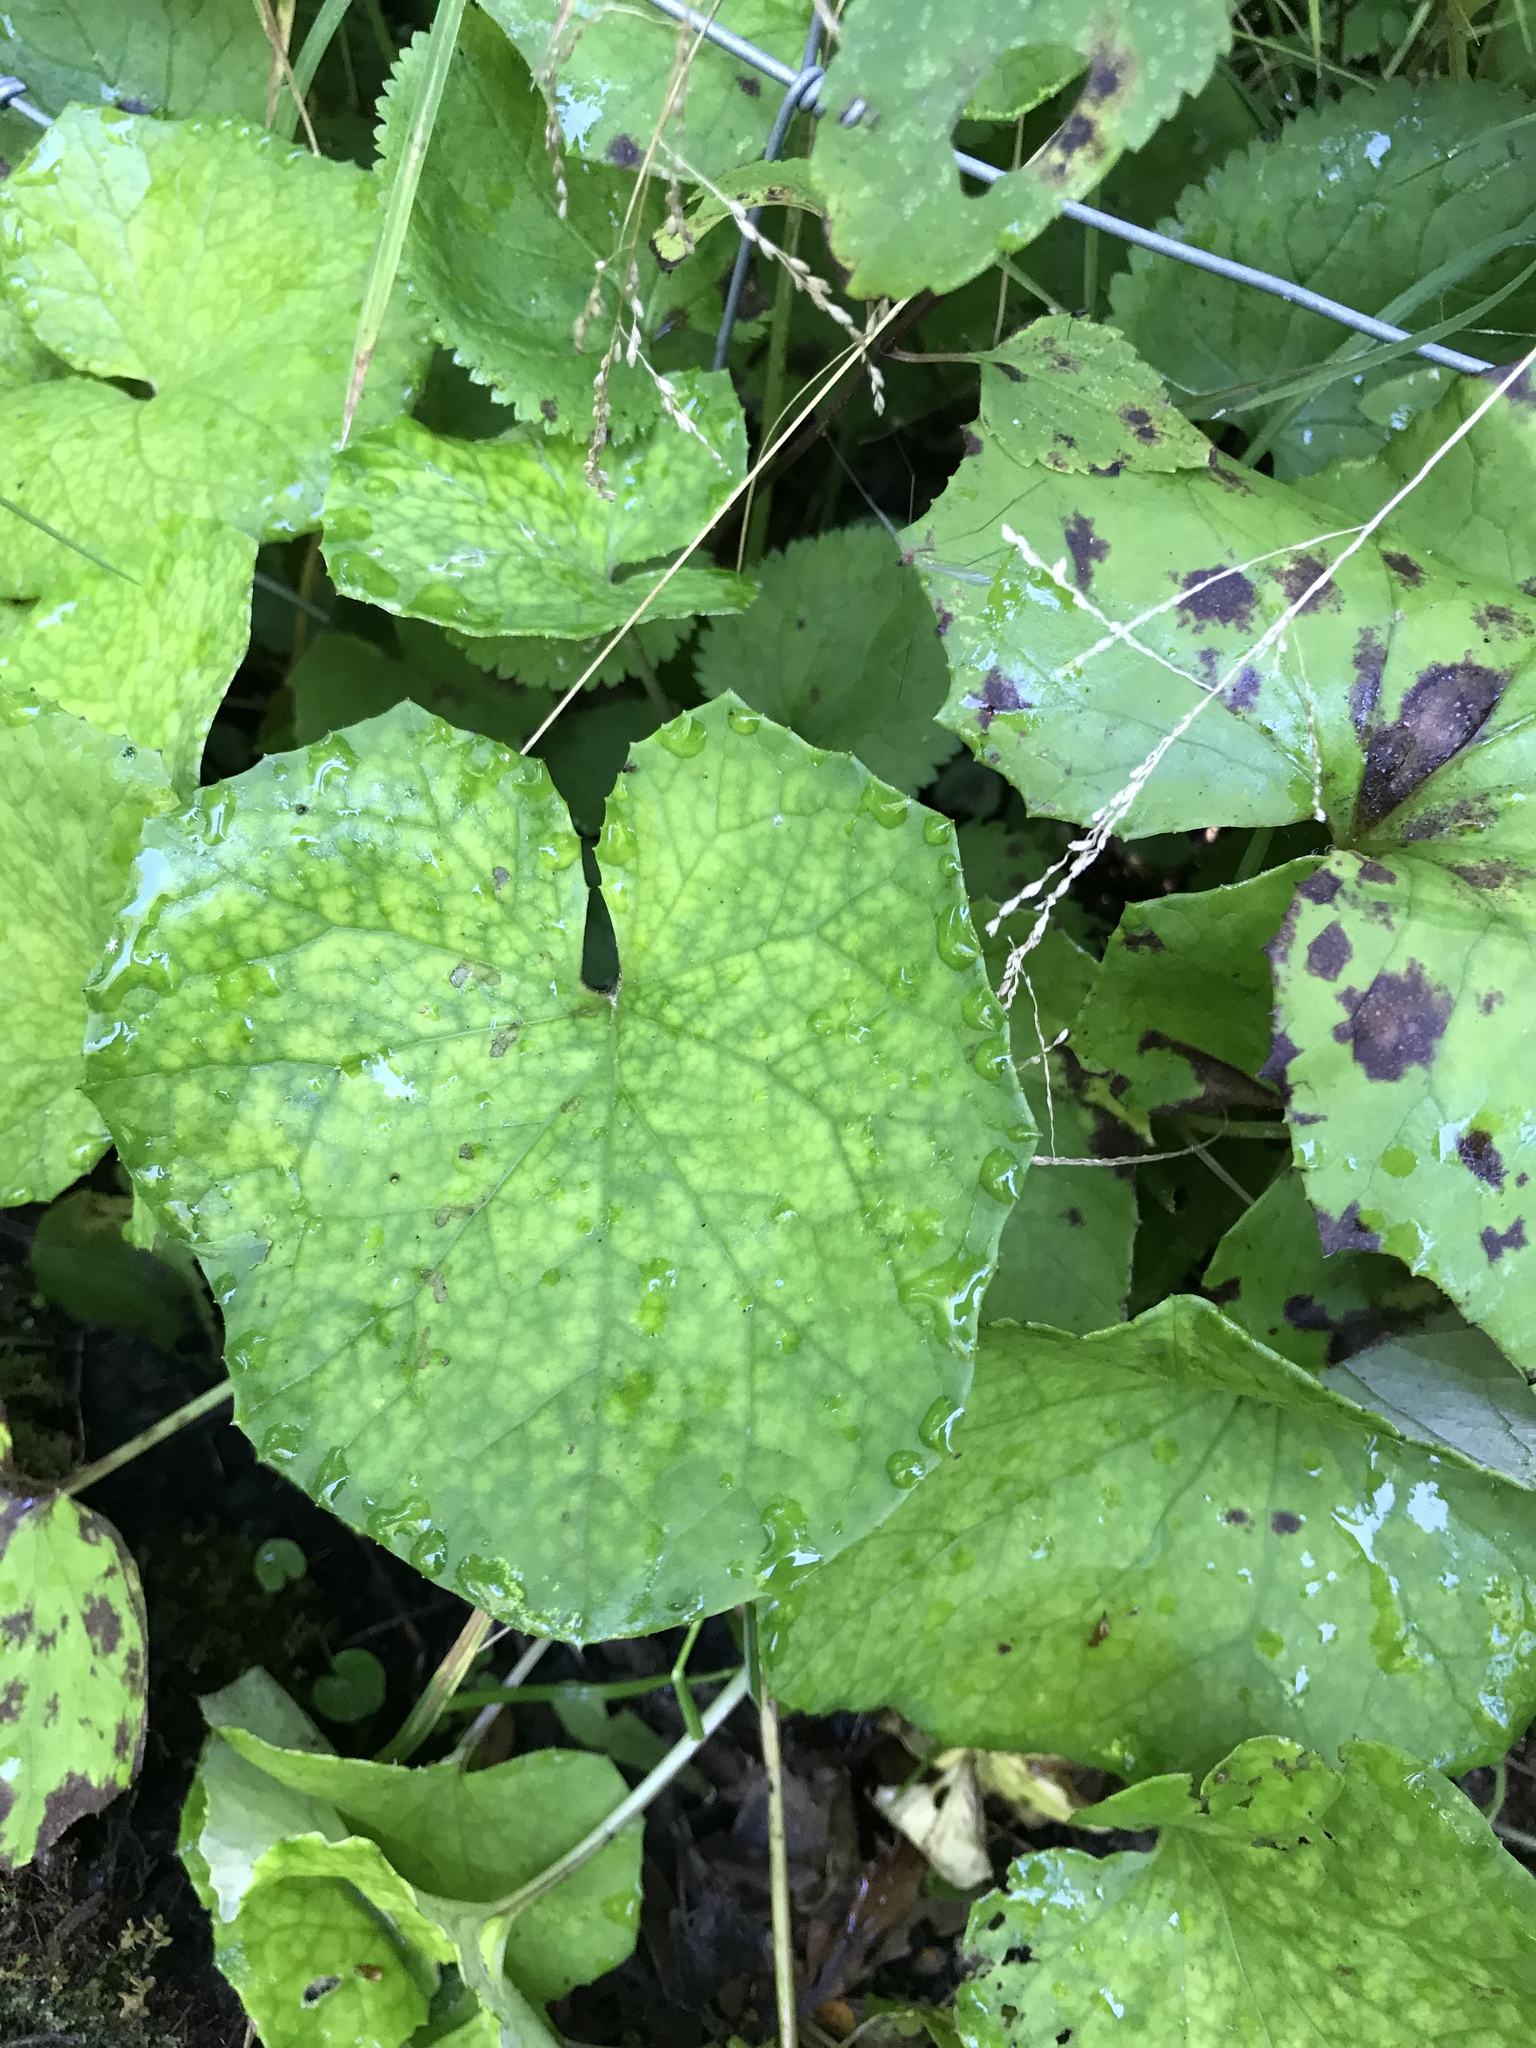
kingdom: Plantae
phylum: Tracheophyta
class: Magnoliopsida
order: Asterales
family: Asteraceae
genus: Tussilago
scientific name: Tussilago farfara
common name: Coltsfoot
